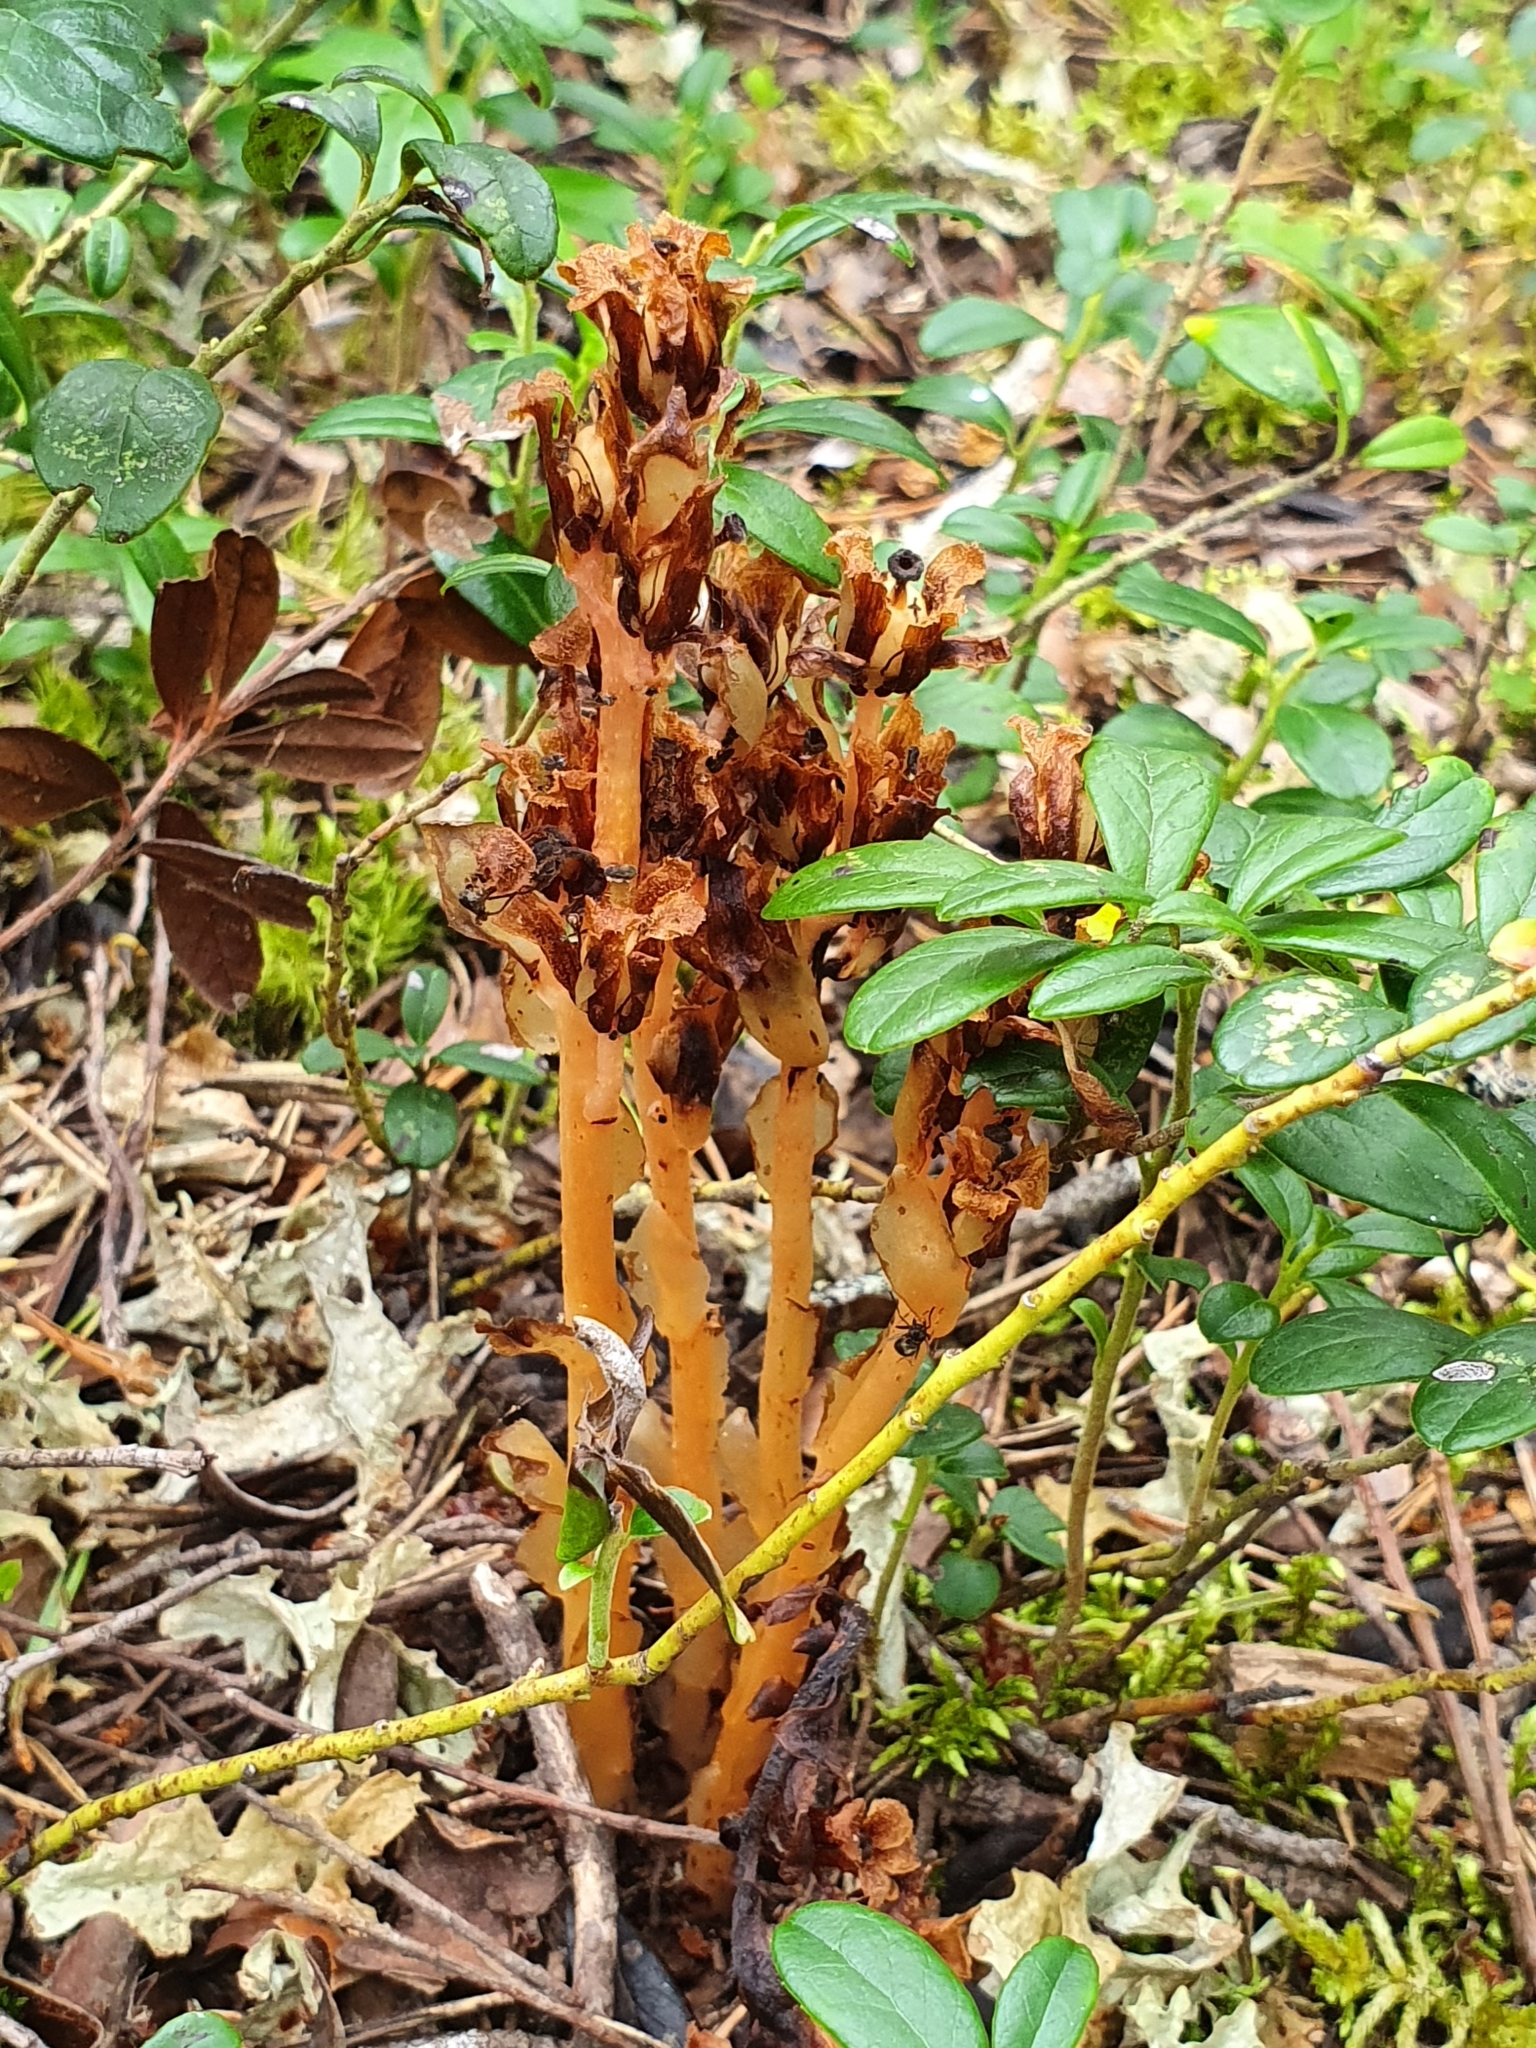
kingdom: Plantae
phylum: Tracheophyta
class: Magnoliopsida
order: Ericales
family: Ericaceae
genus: Hypopitys
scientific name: Hypopitys monotropa
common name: Yellow bird's-nest
